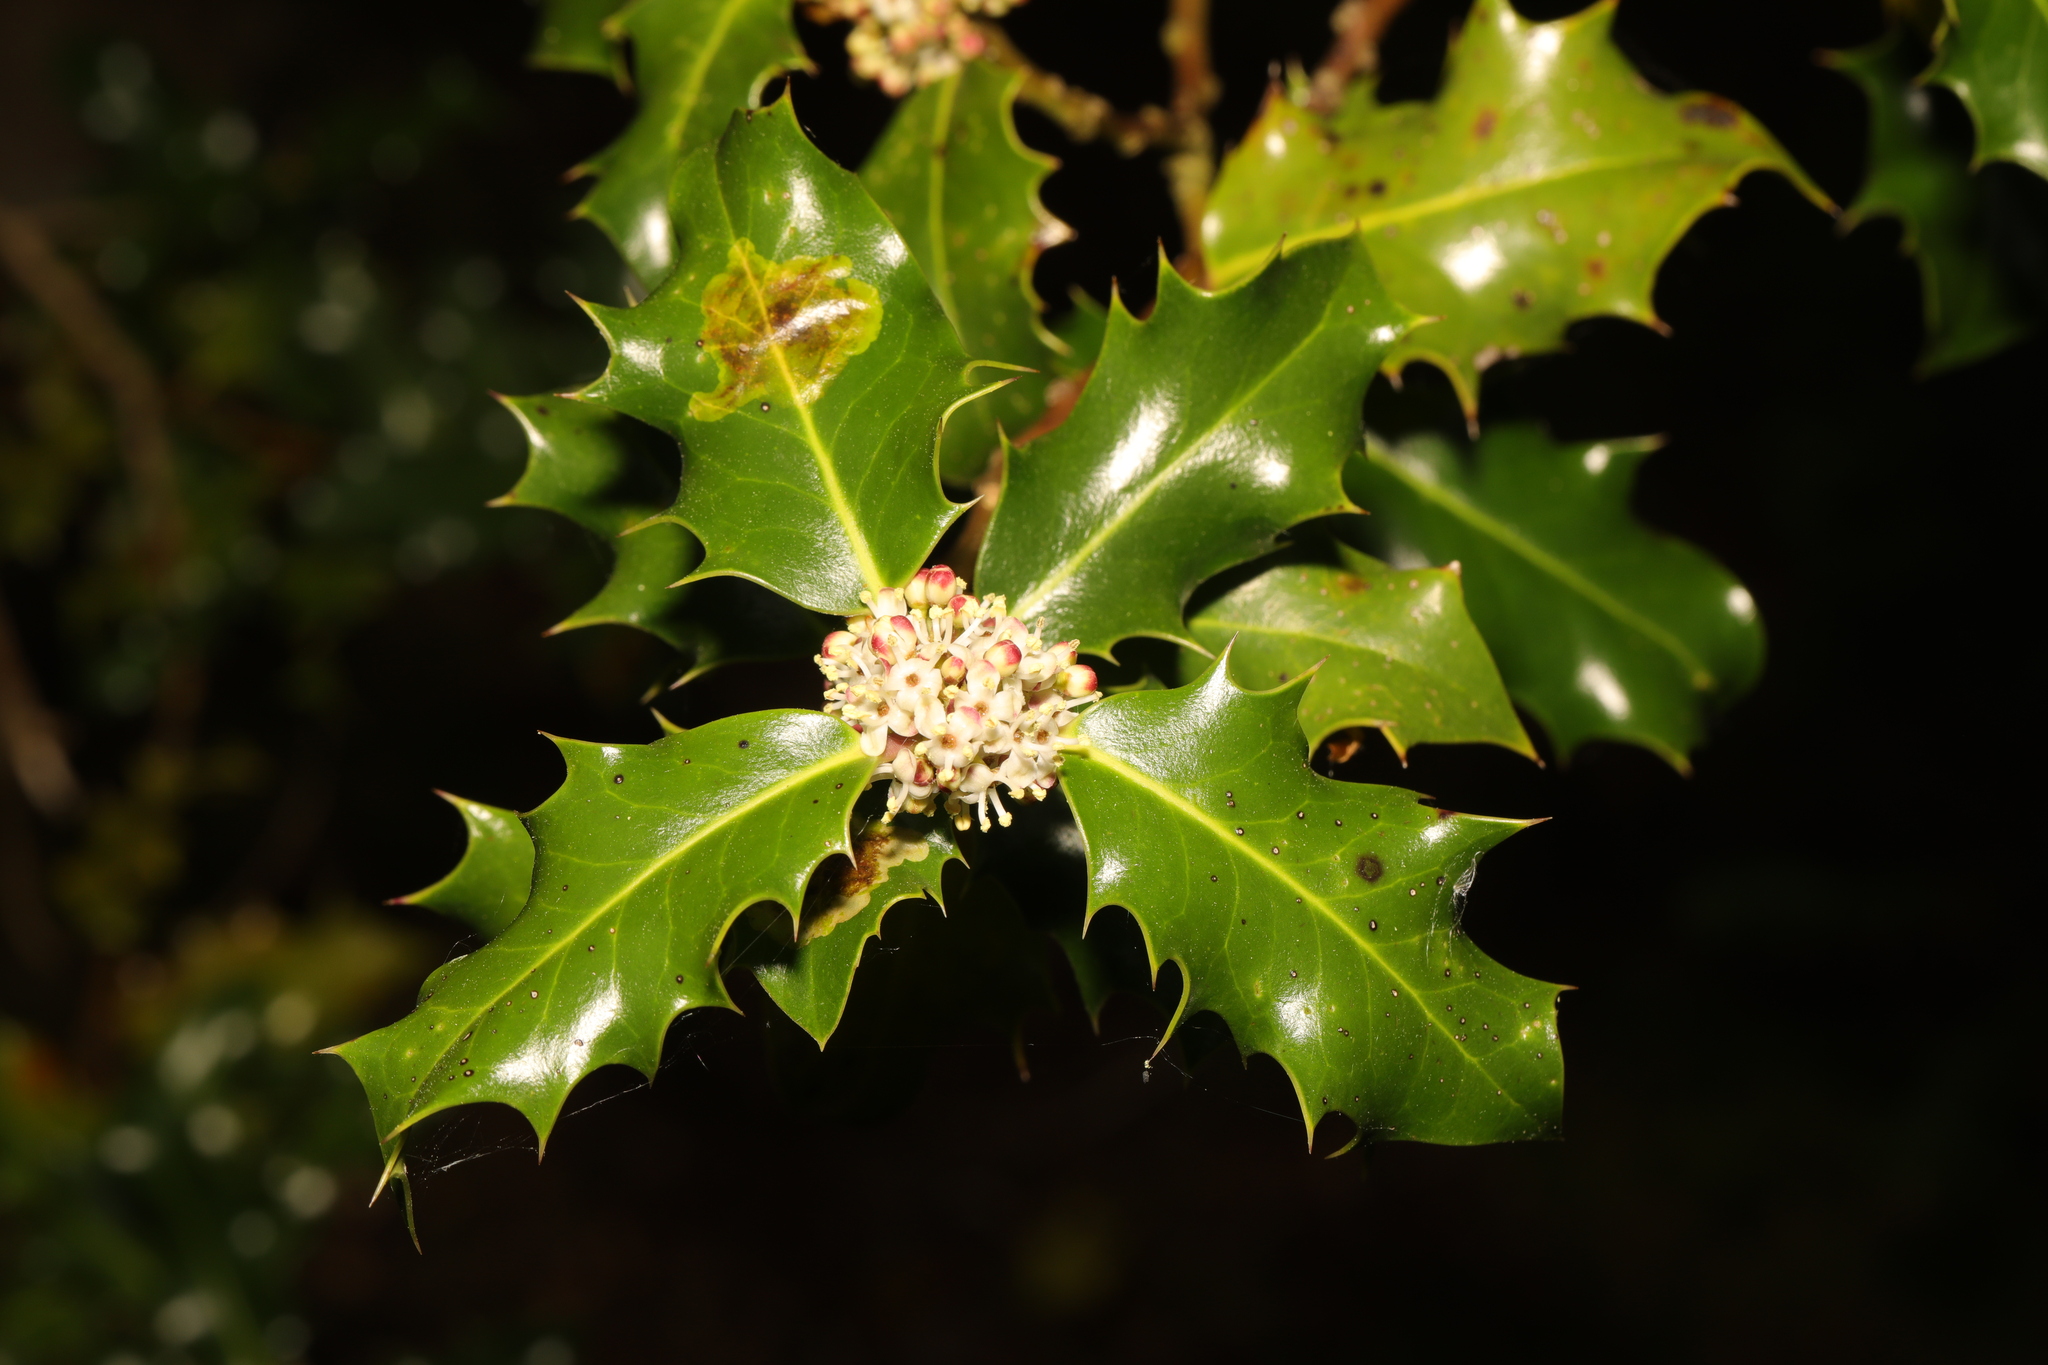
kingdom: Plantae
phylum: Tracheophyta
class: Magnoliopsida
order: Aquifoliales
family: Aquifoliaceae
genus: Ilex
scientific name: Ilex aquifolium
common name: English holly
